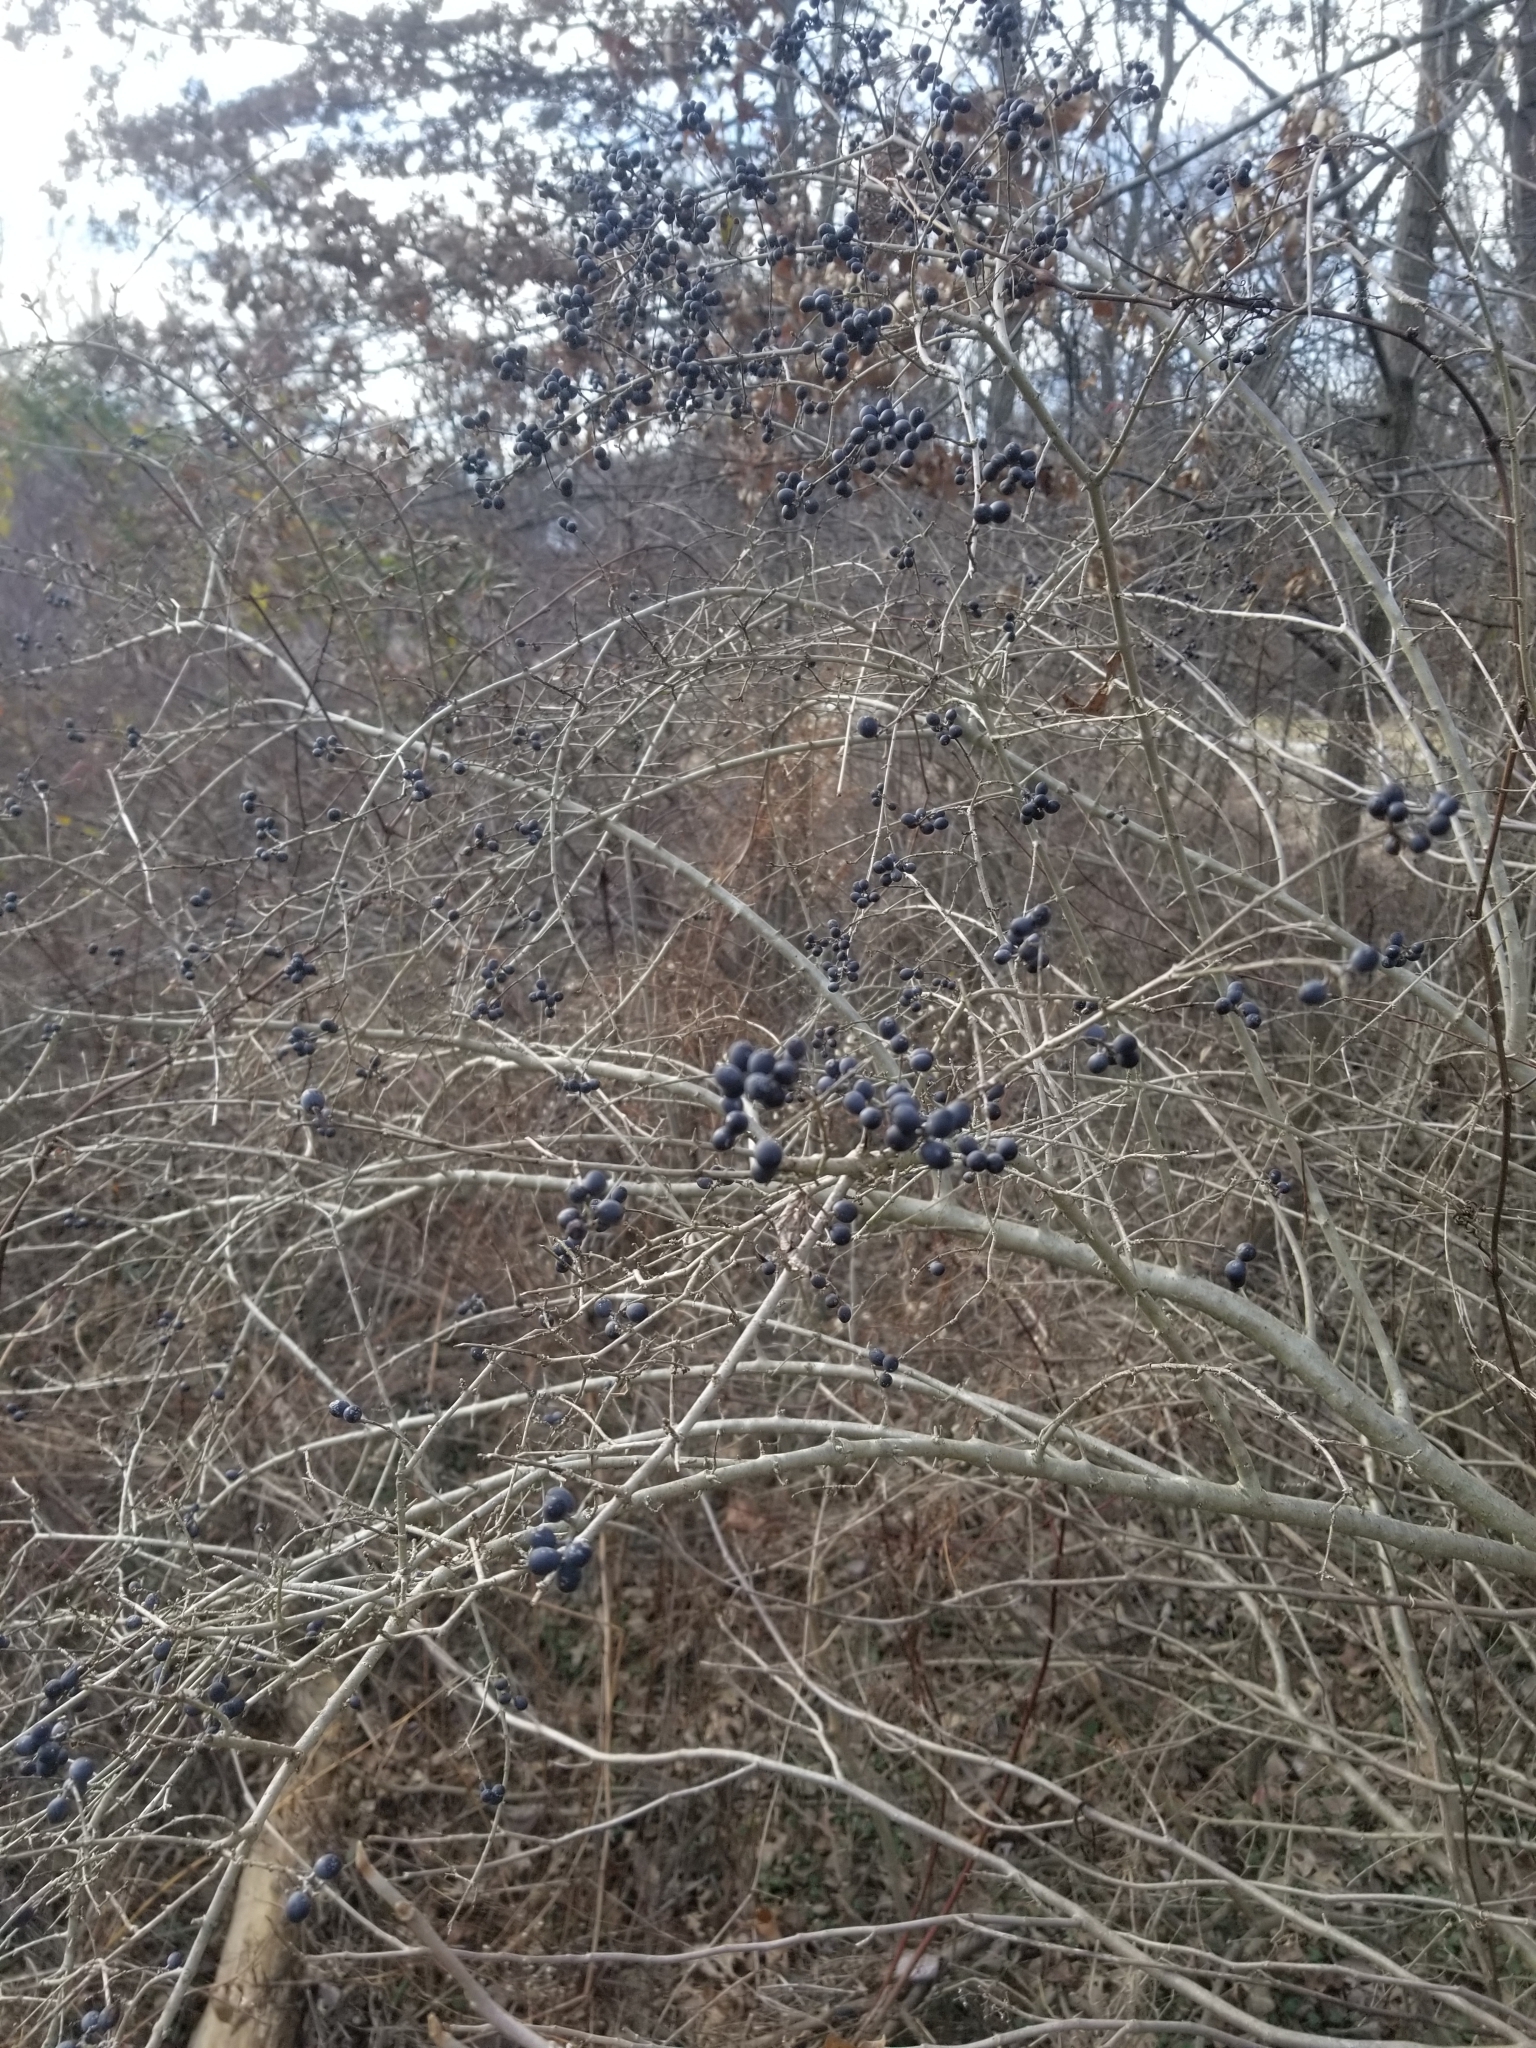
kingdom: Plantae
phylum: Tracheophyta
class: Magnoliopsida
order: Lamiales
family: Oleaceae
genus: Ligustrum
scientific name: Ligustrum obtusifolium
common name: Border privet
